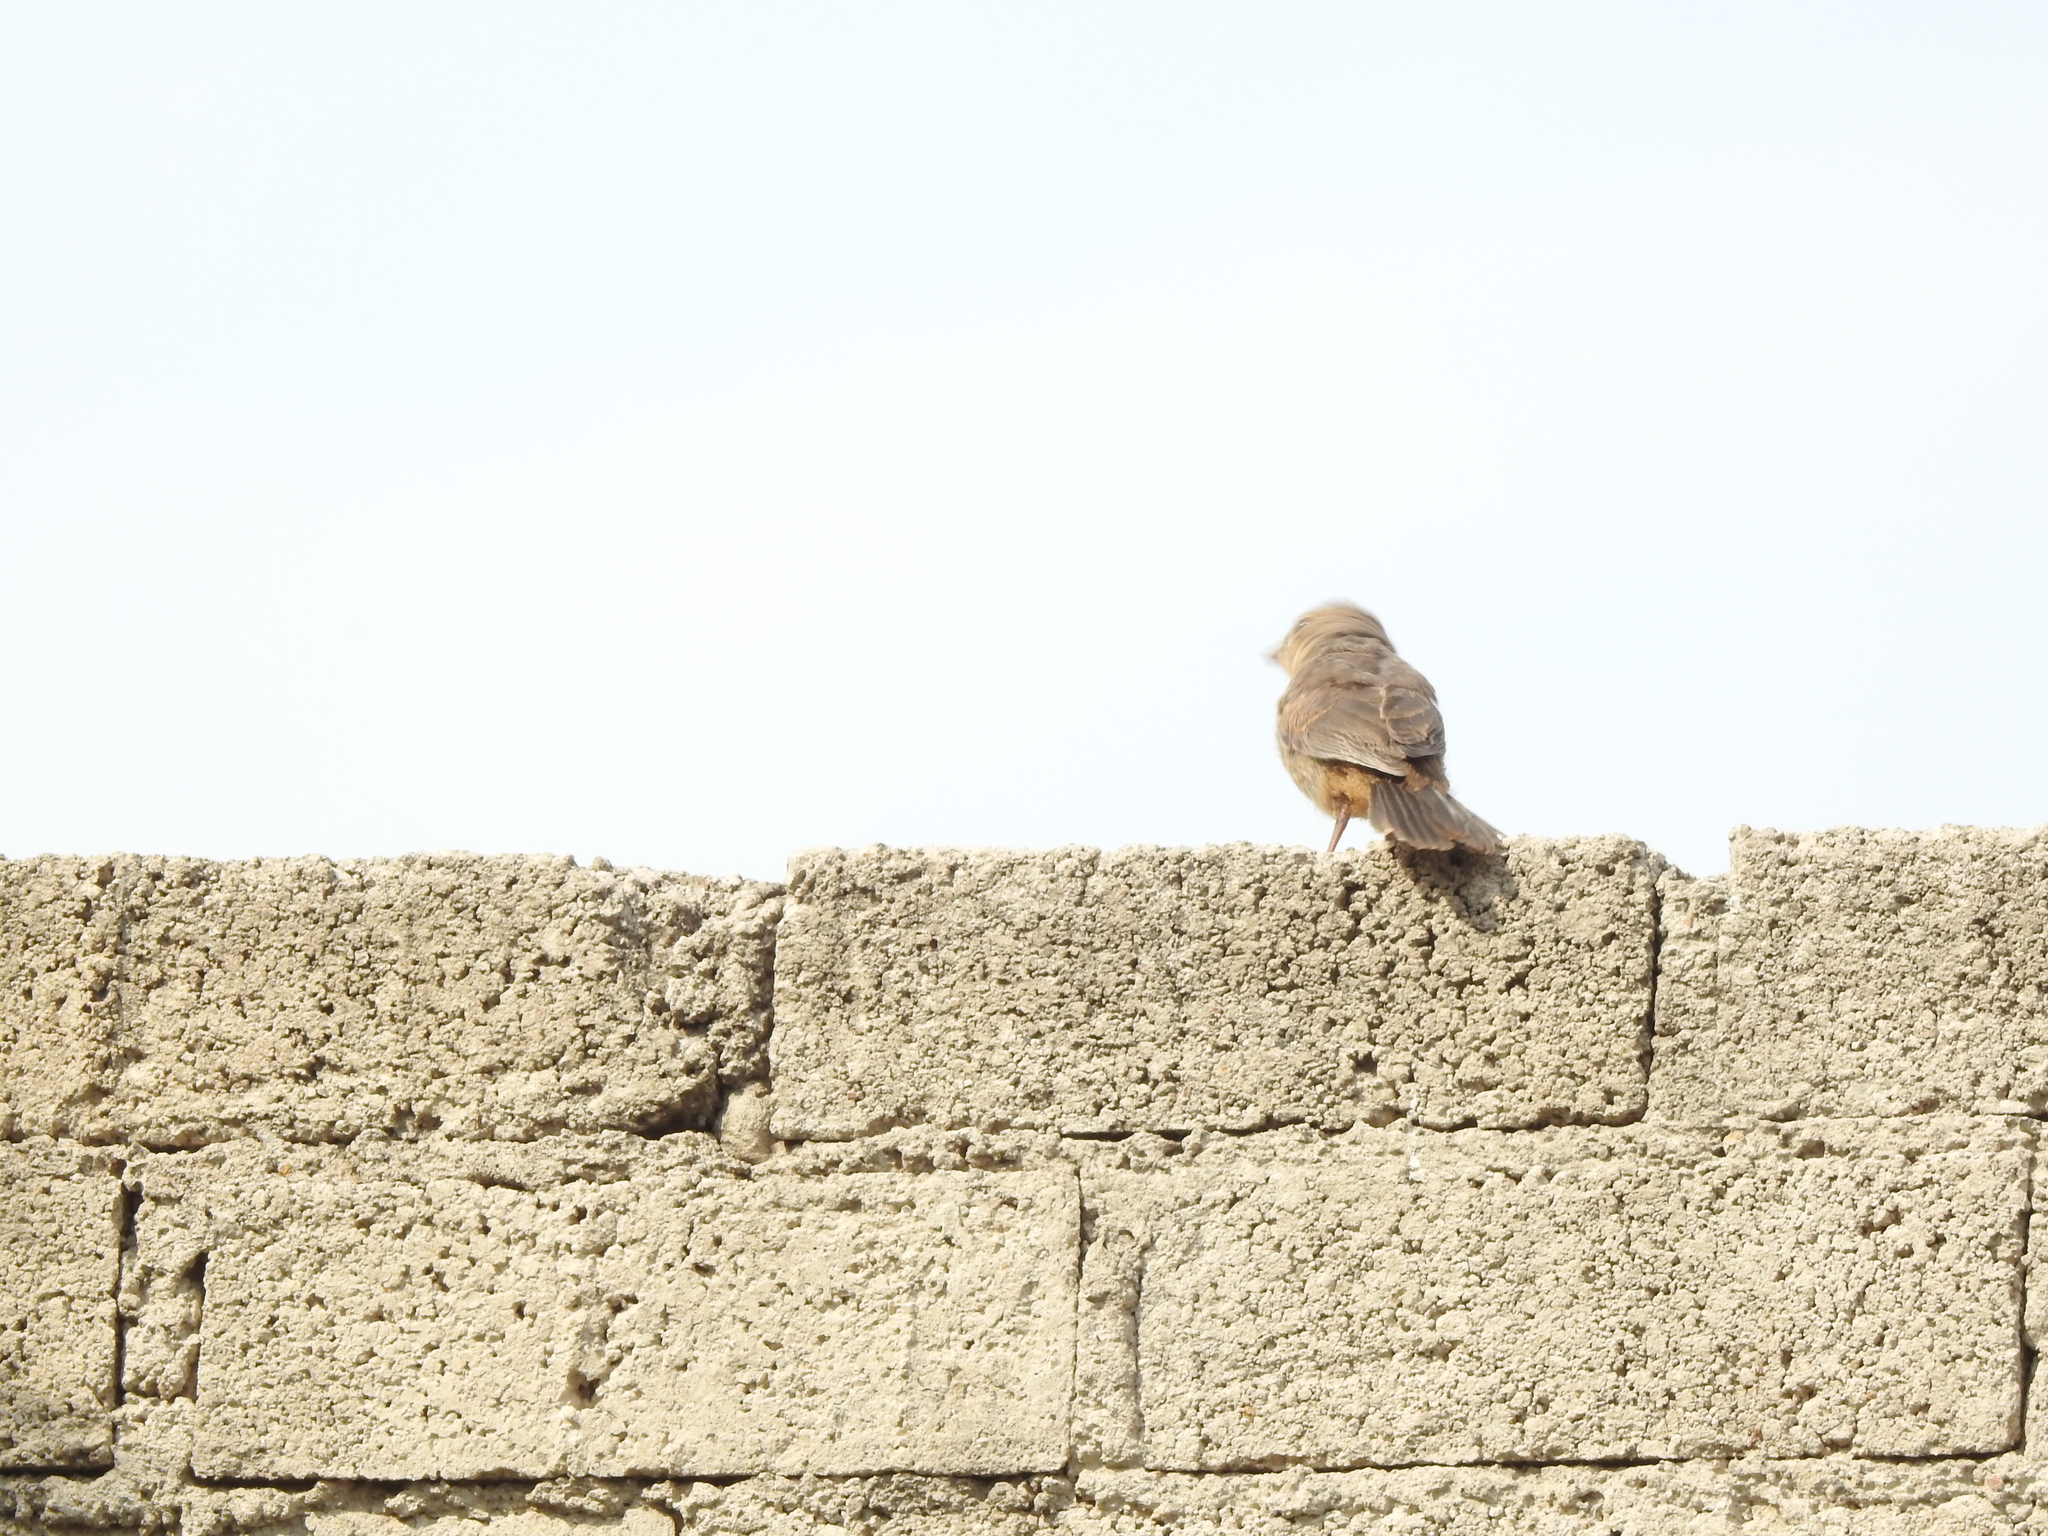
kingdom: Animalia
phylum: Chordata
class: Aves
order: Passeriformes
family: Passerellidae
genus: Melozone
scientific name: Melozone fusca
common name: Canyon towhee
